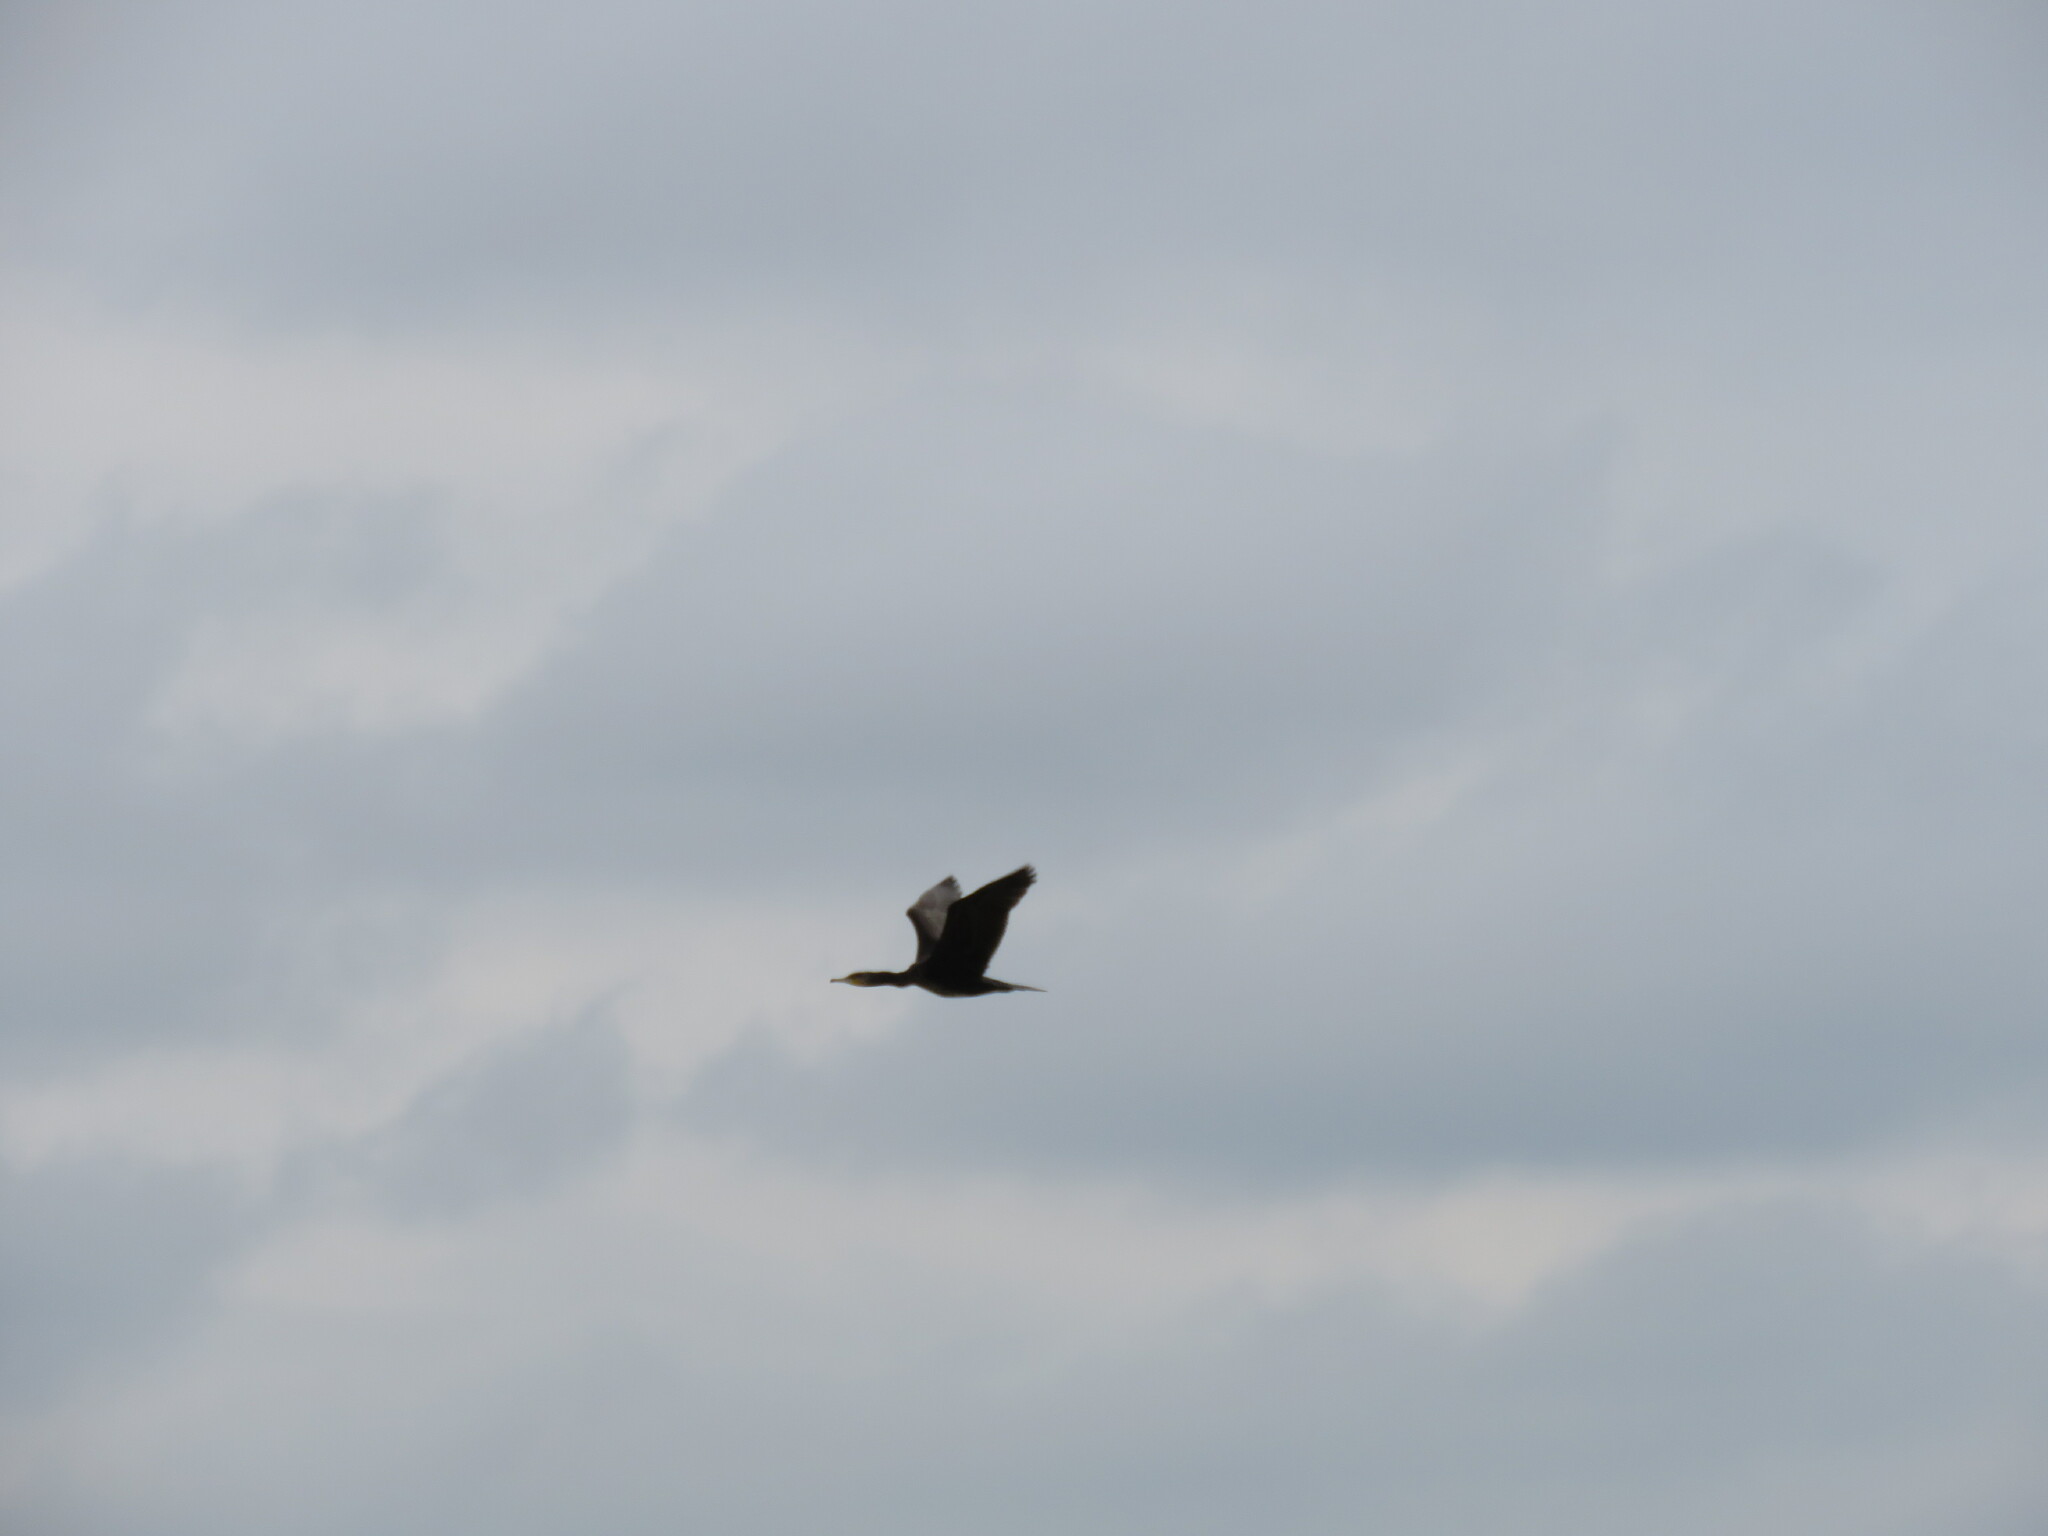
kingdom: Animalia
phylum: Chordata
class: Aves
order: Suliformes
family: Phalacrocoracidae
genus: Phalacrocorax
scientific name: Phalacrocorax carbo
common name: Great cormorant
